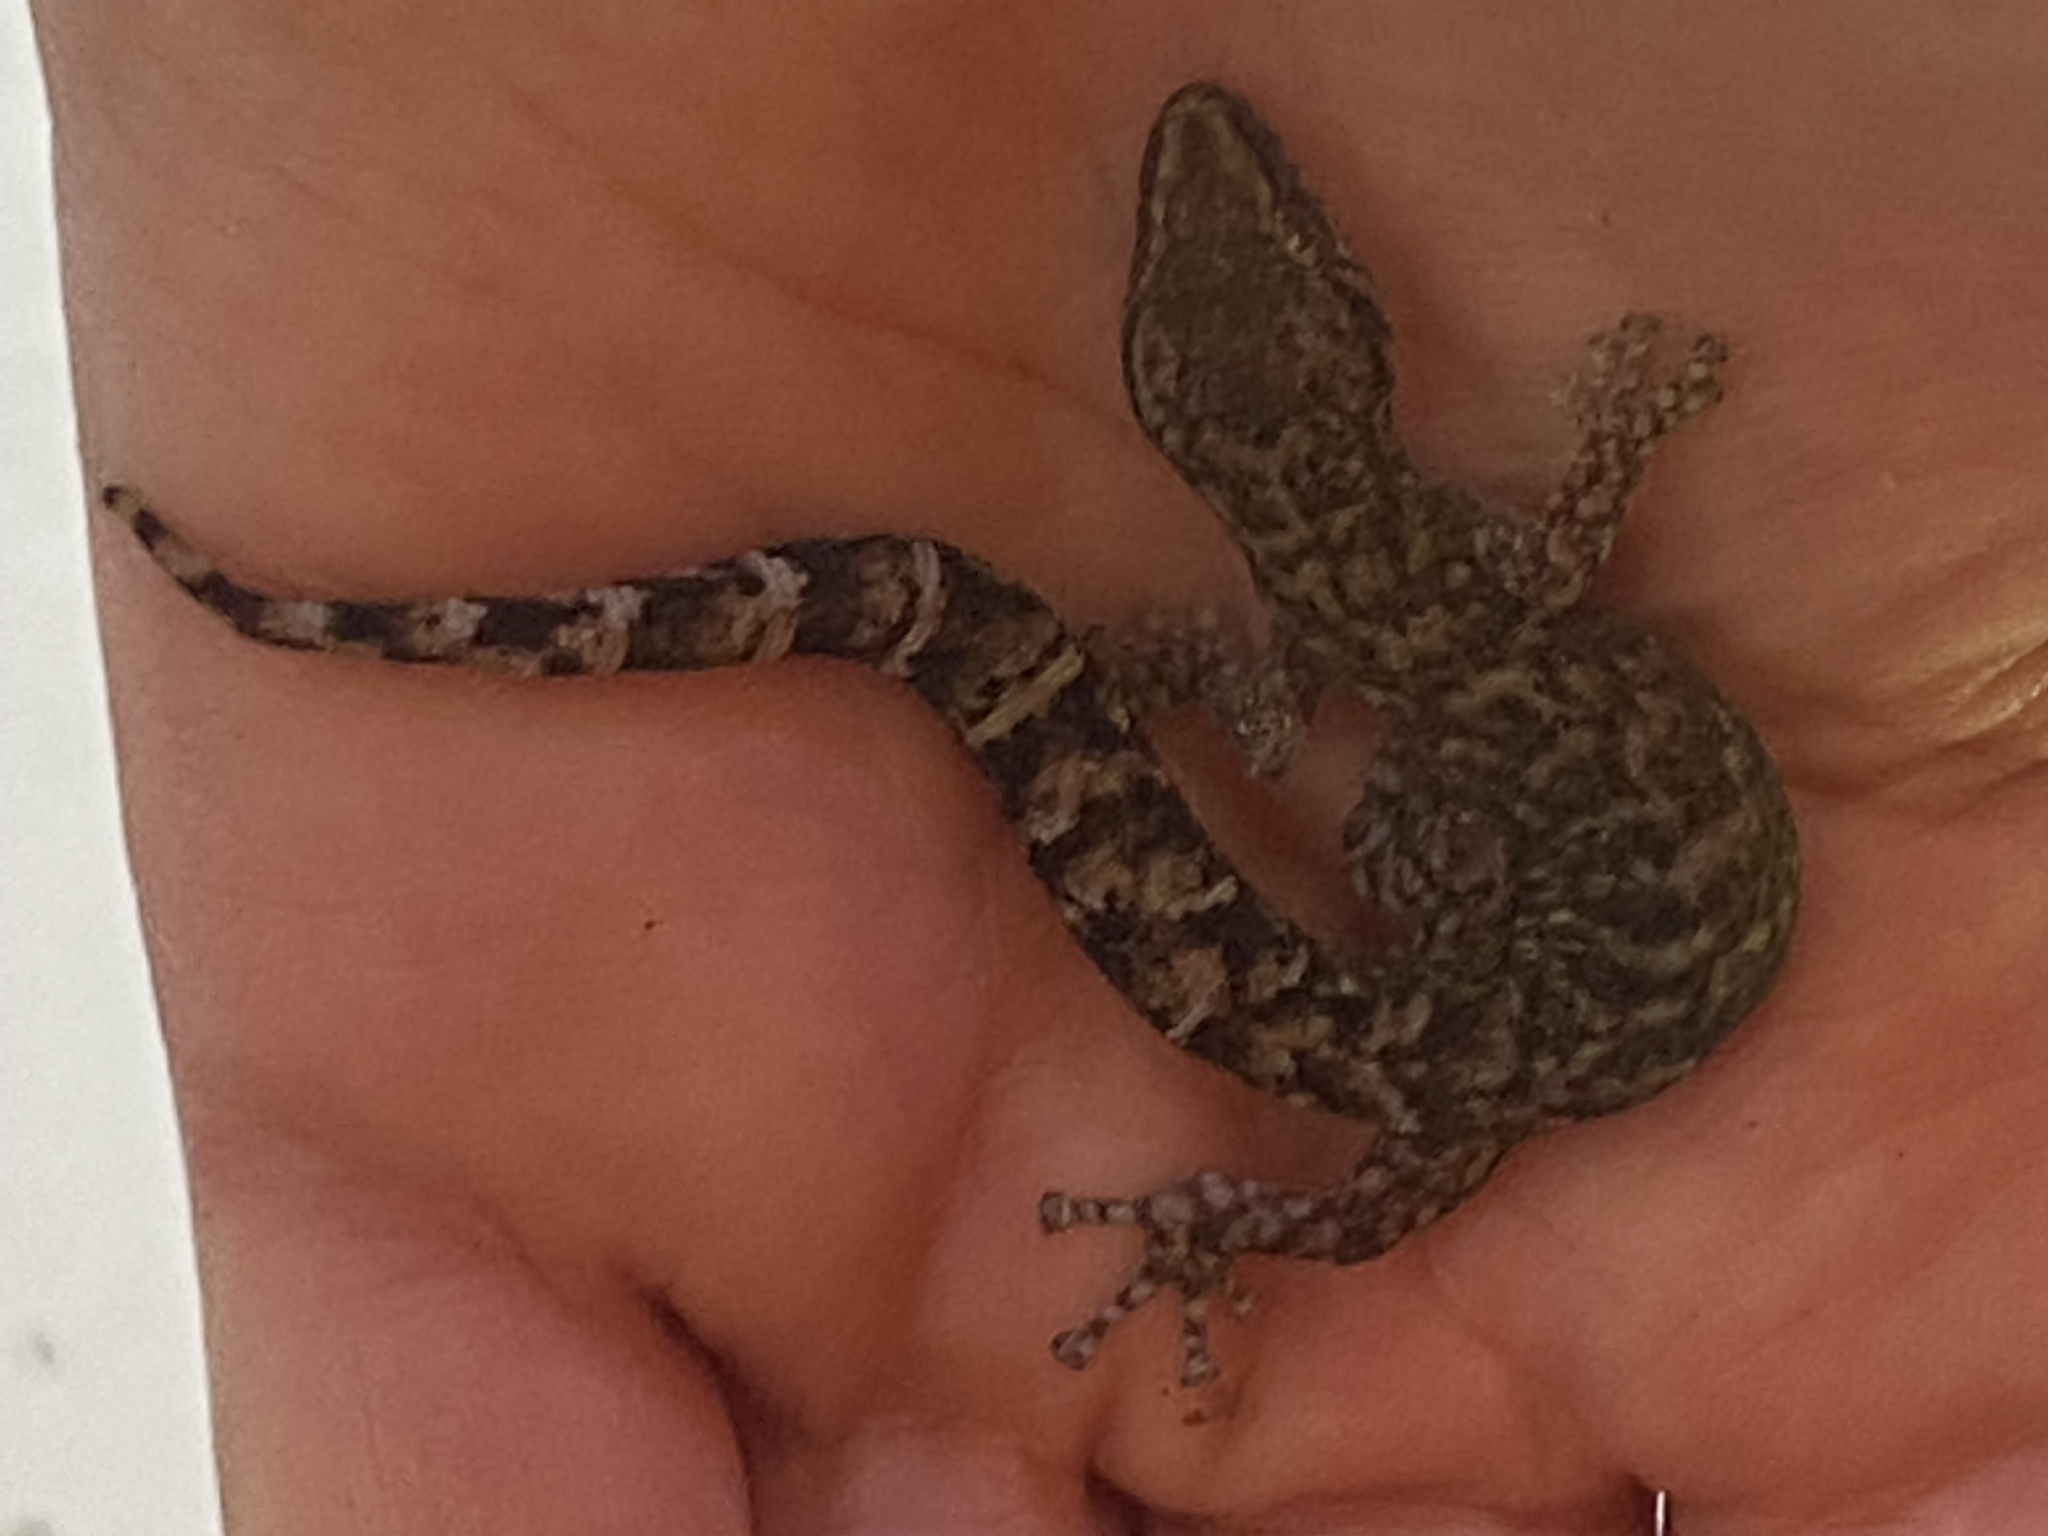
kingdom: Animalia
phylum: Chordata
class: Squamata
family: Gekkonidae
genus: Afrogecko
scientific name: Afrogecko porphyreus
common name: Marbled leaf-toed gecko
